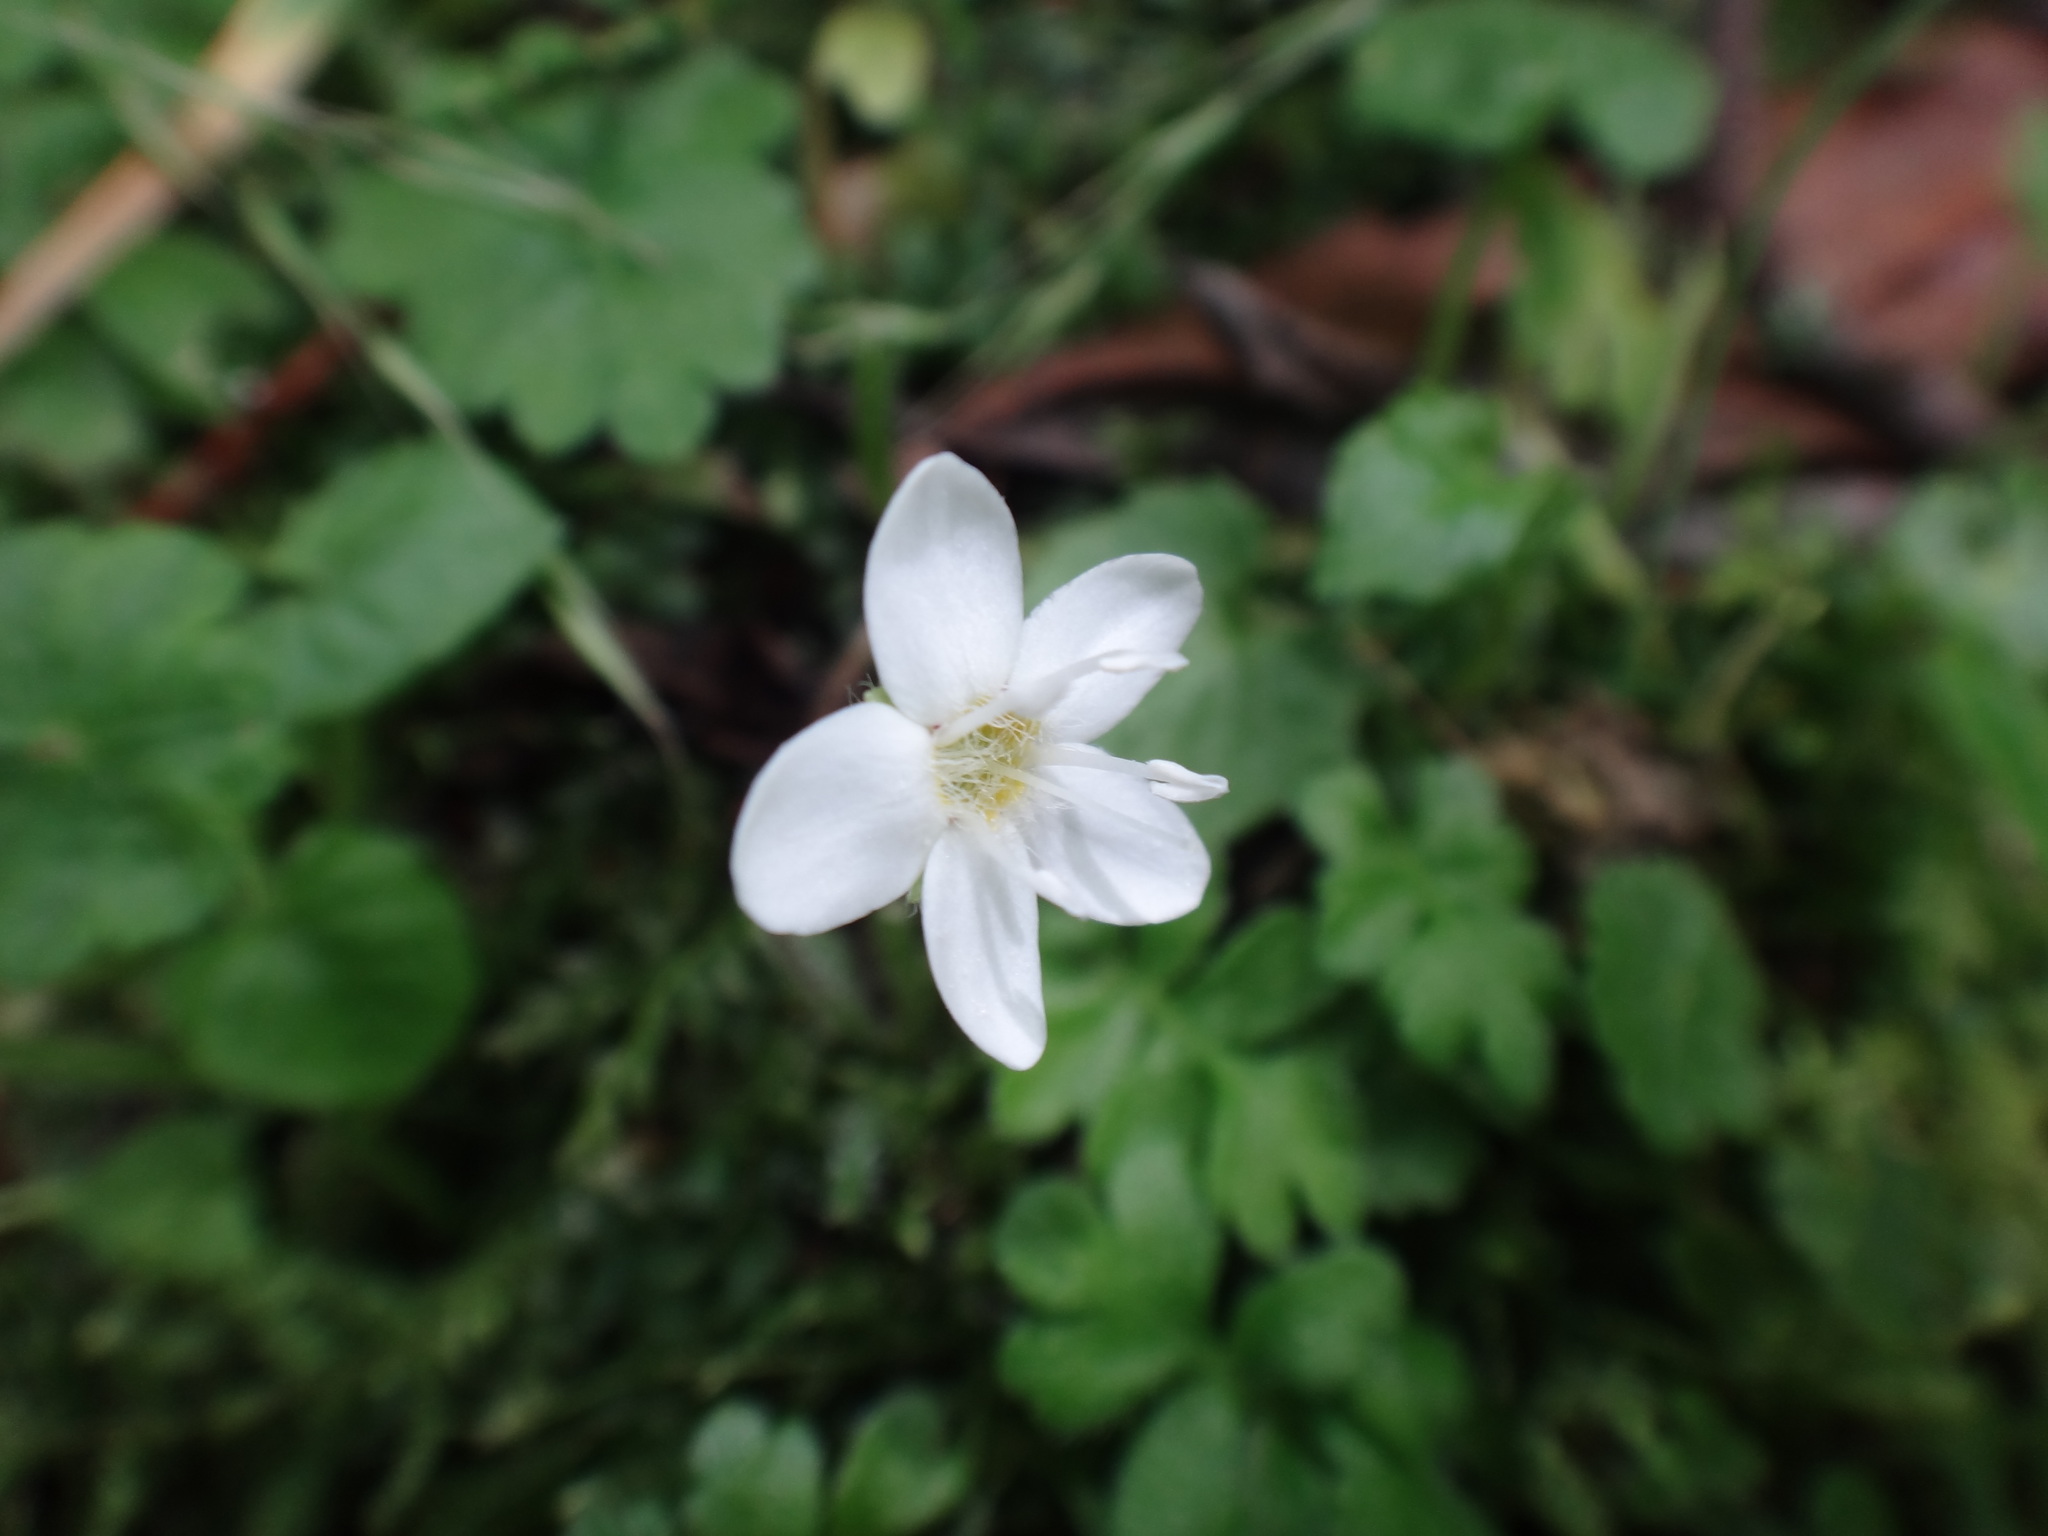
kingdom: Plantae
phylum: Tracheophyta
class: Magnoliopsida
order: Lamiales
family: Plantaginaceae
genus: Ellisiophyllum
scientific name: Ellisiophyllum pinnatum
